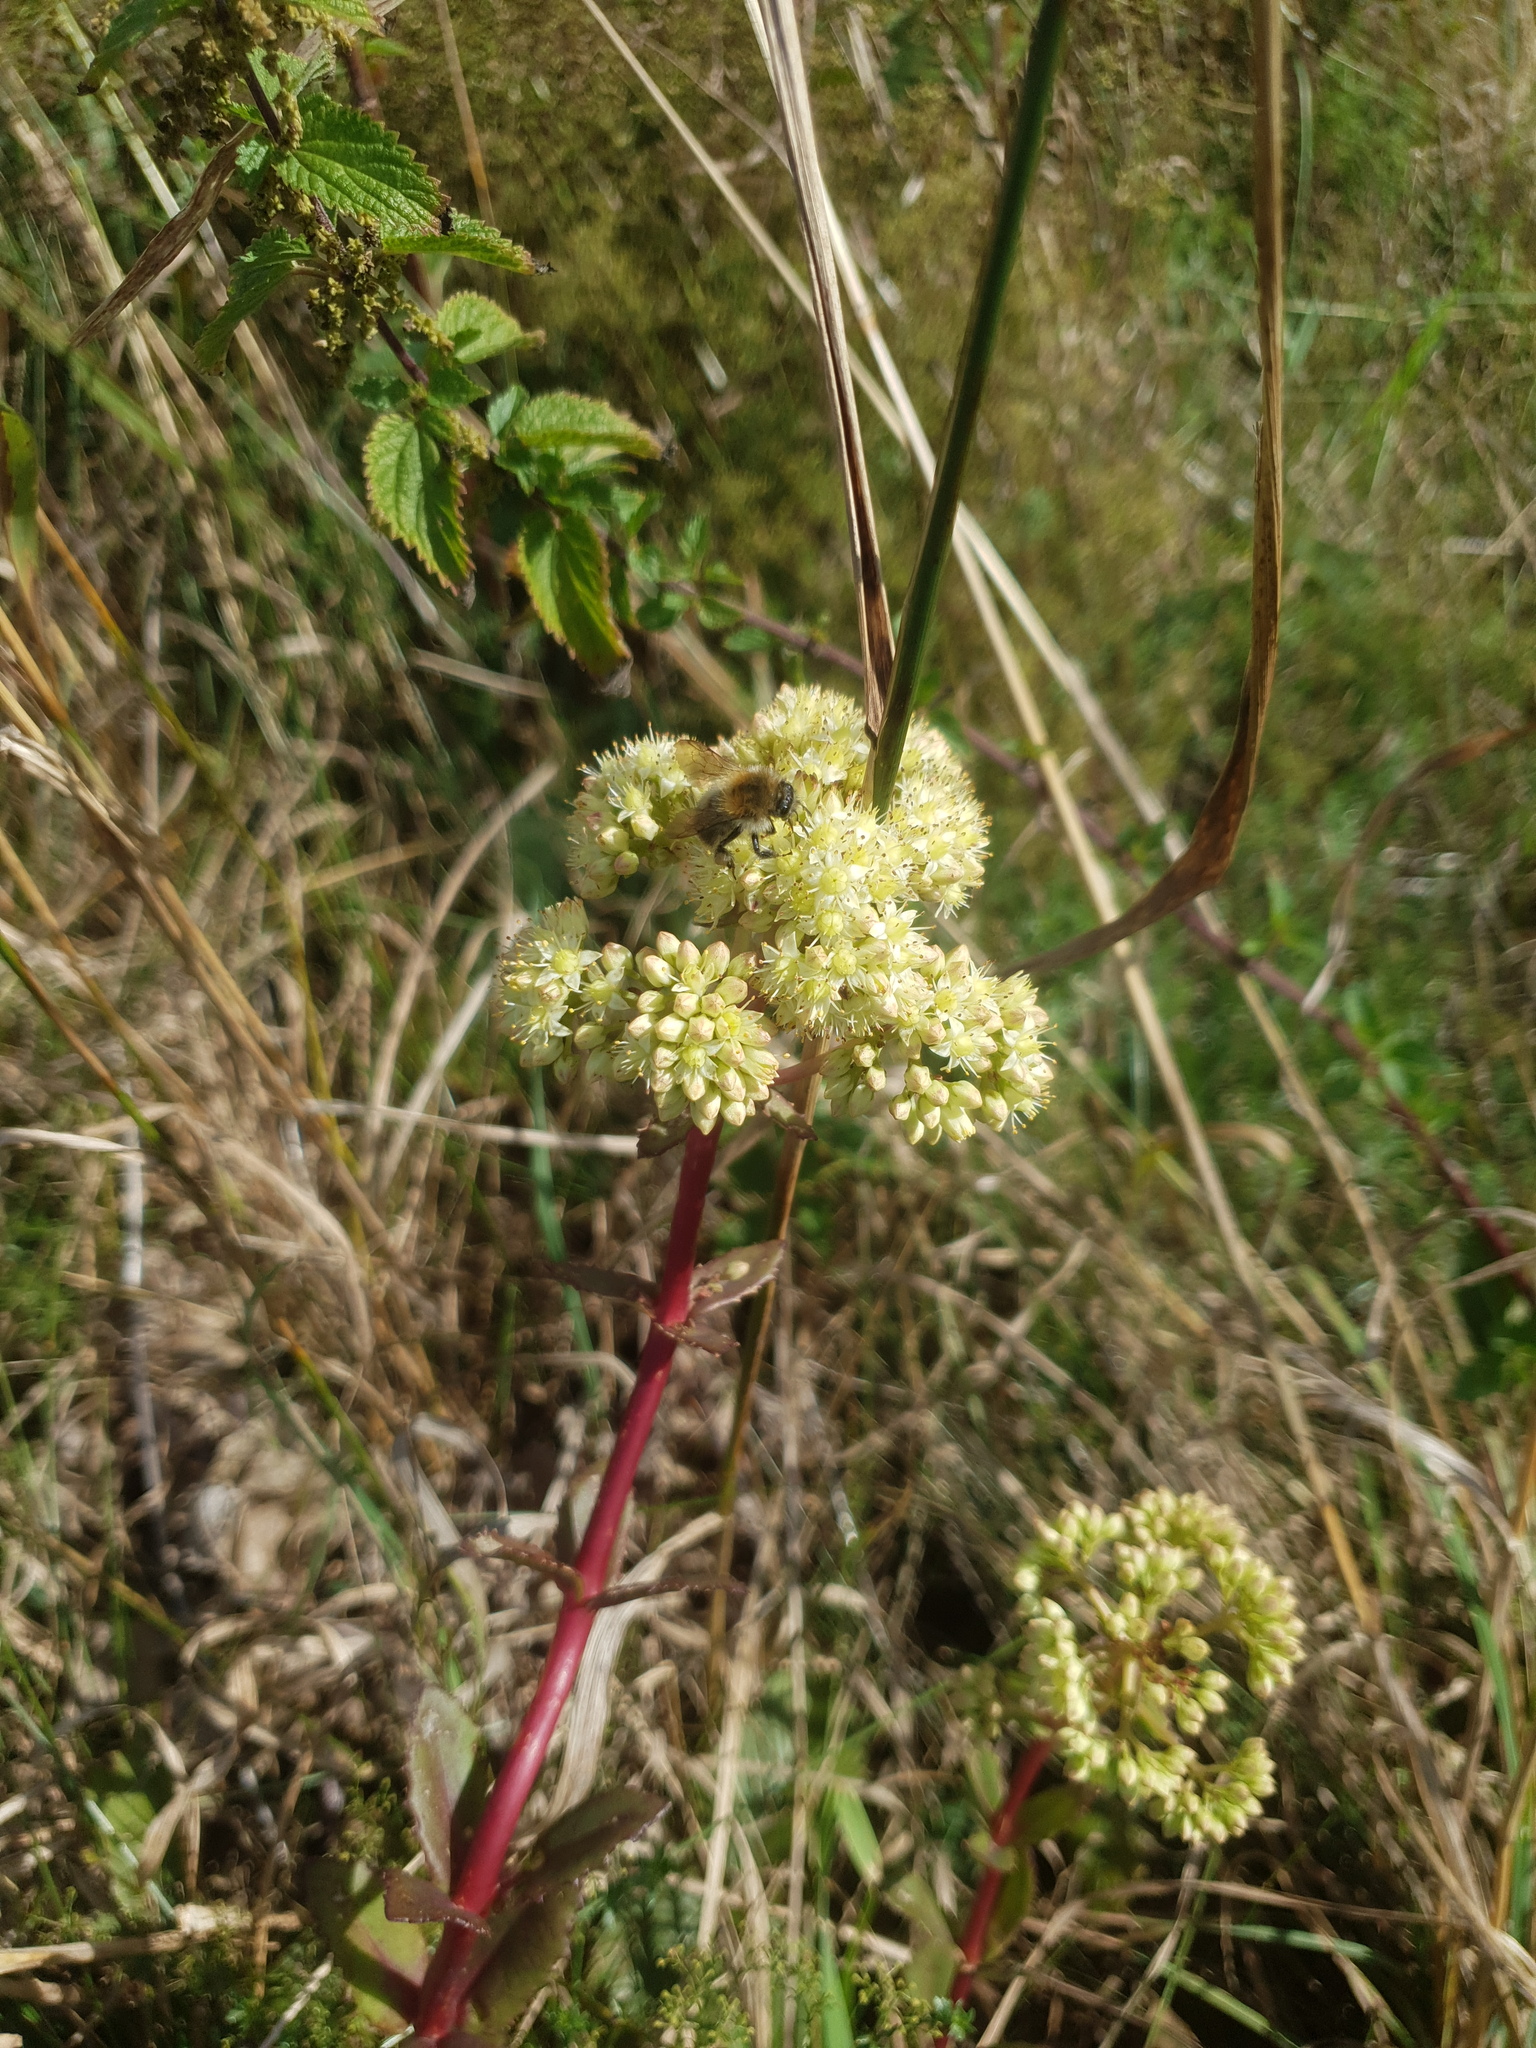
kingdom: Plantae
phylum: Tracheophyta
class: Magnoliopsida
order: Saxifragales
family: Crassulaceae
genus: Hylotelephium
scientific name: Hylotelephium maximum
